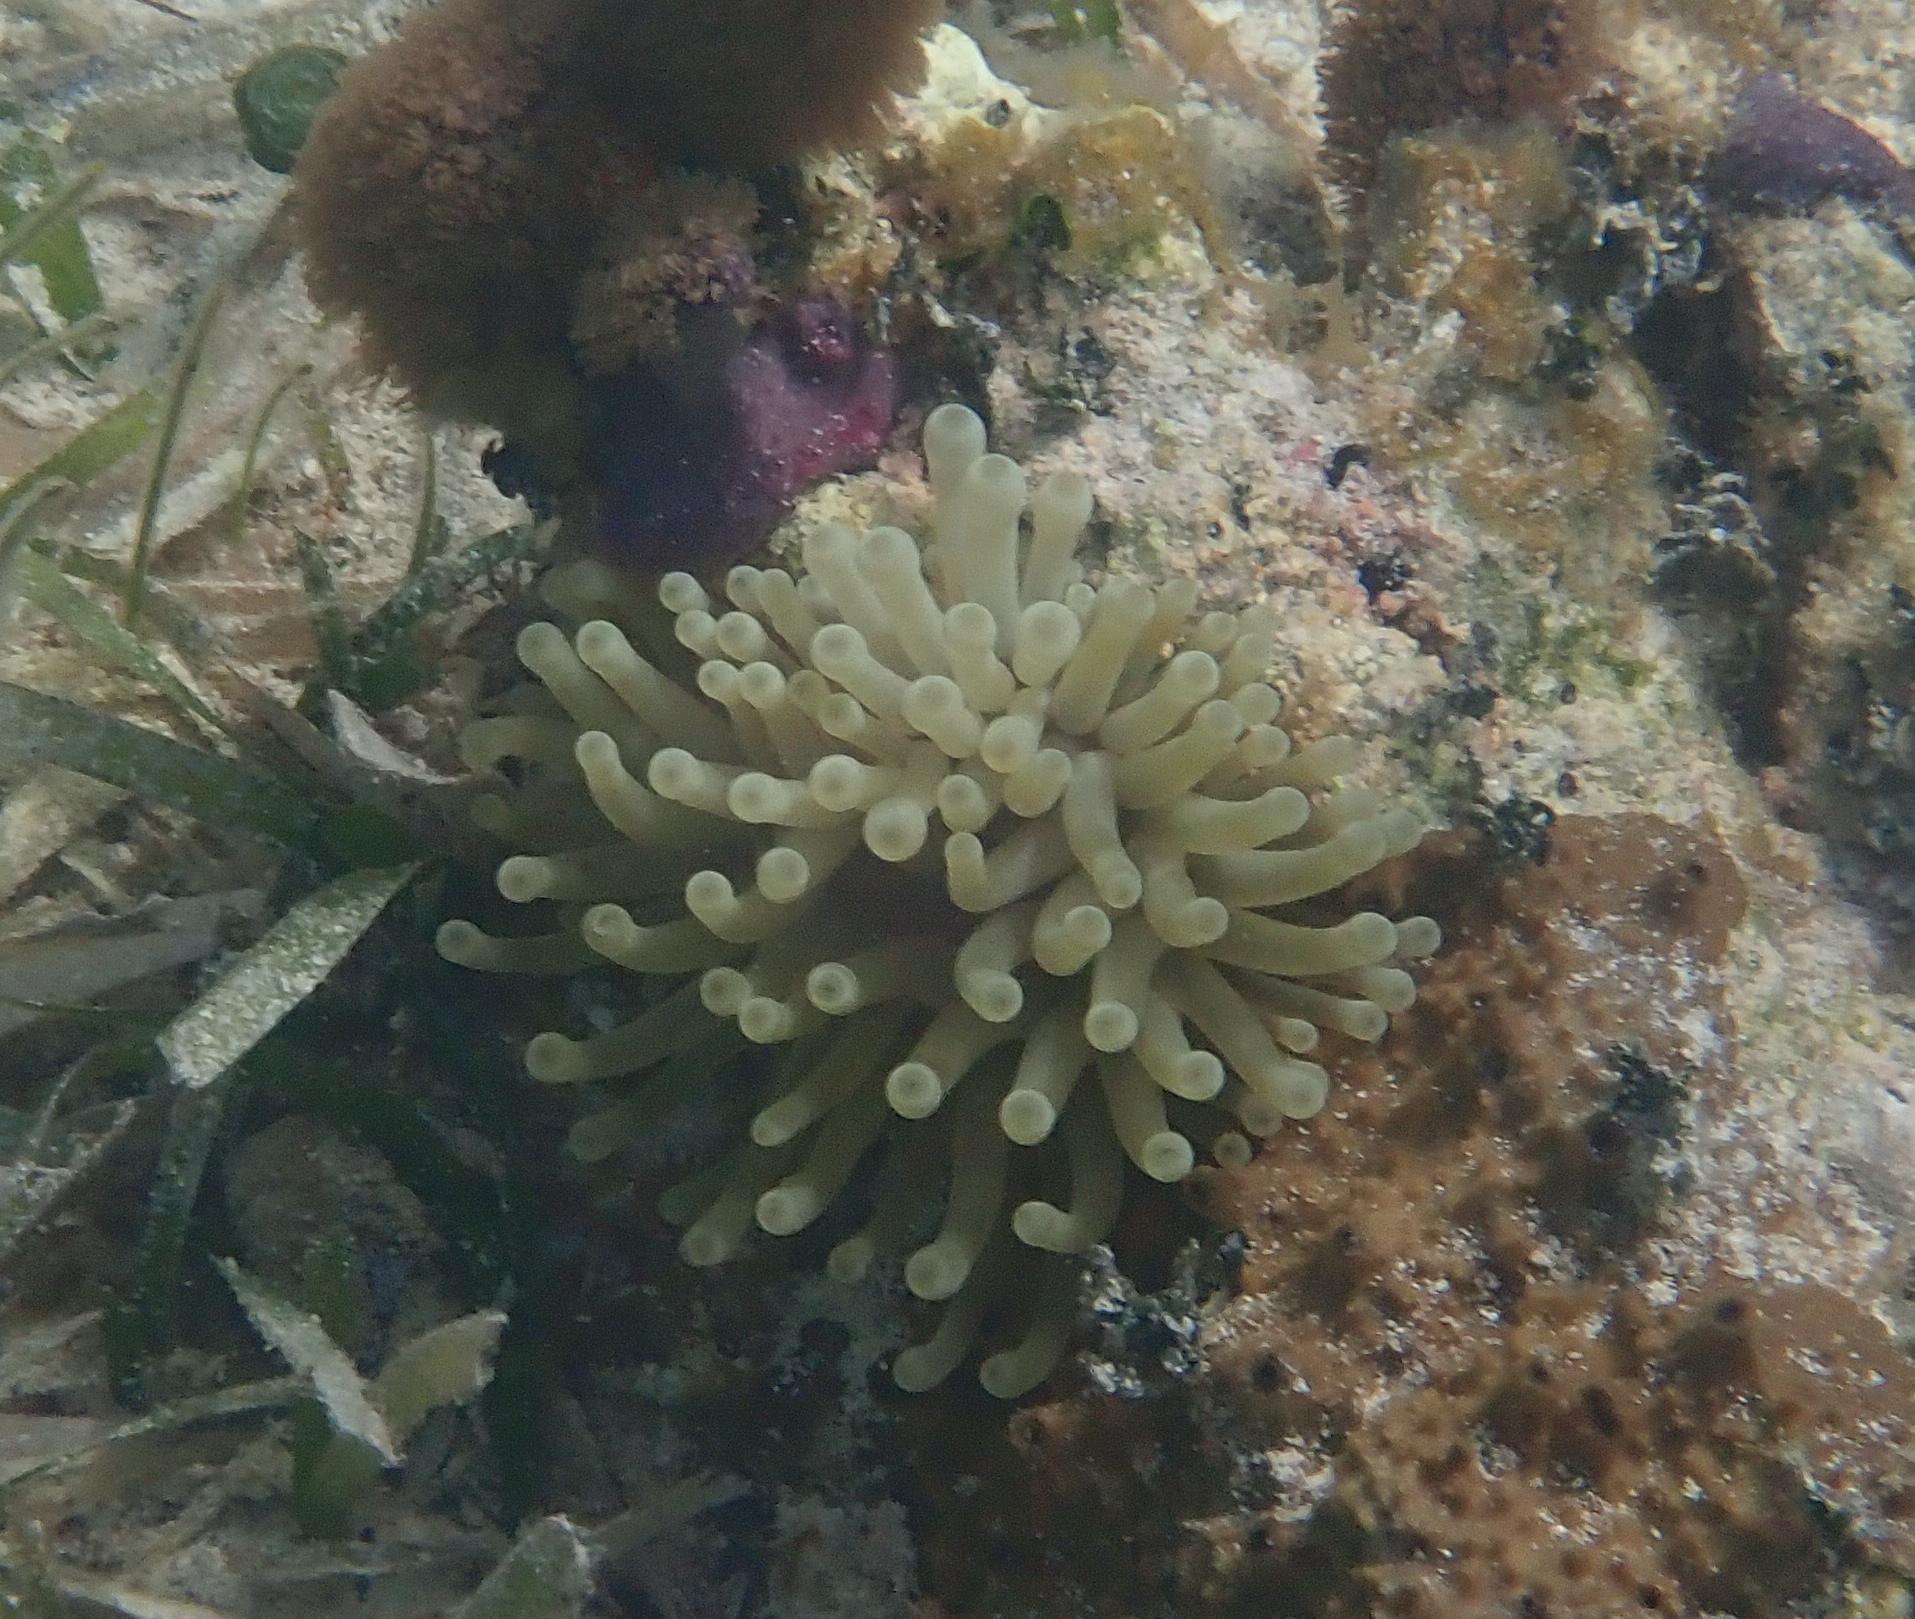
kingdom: Animalia
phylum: Cnidaria
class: Anthozoa
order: Actiniaria
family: Actiniidae
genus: Condylactis
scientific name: Condylactis gigantea
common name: Giant caribbean anemone
